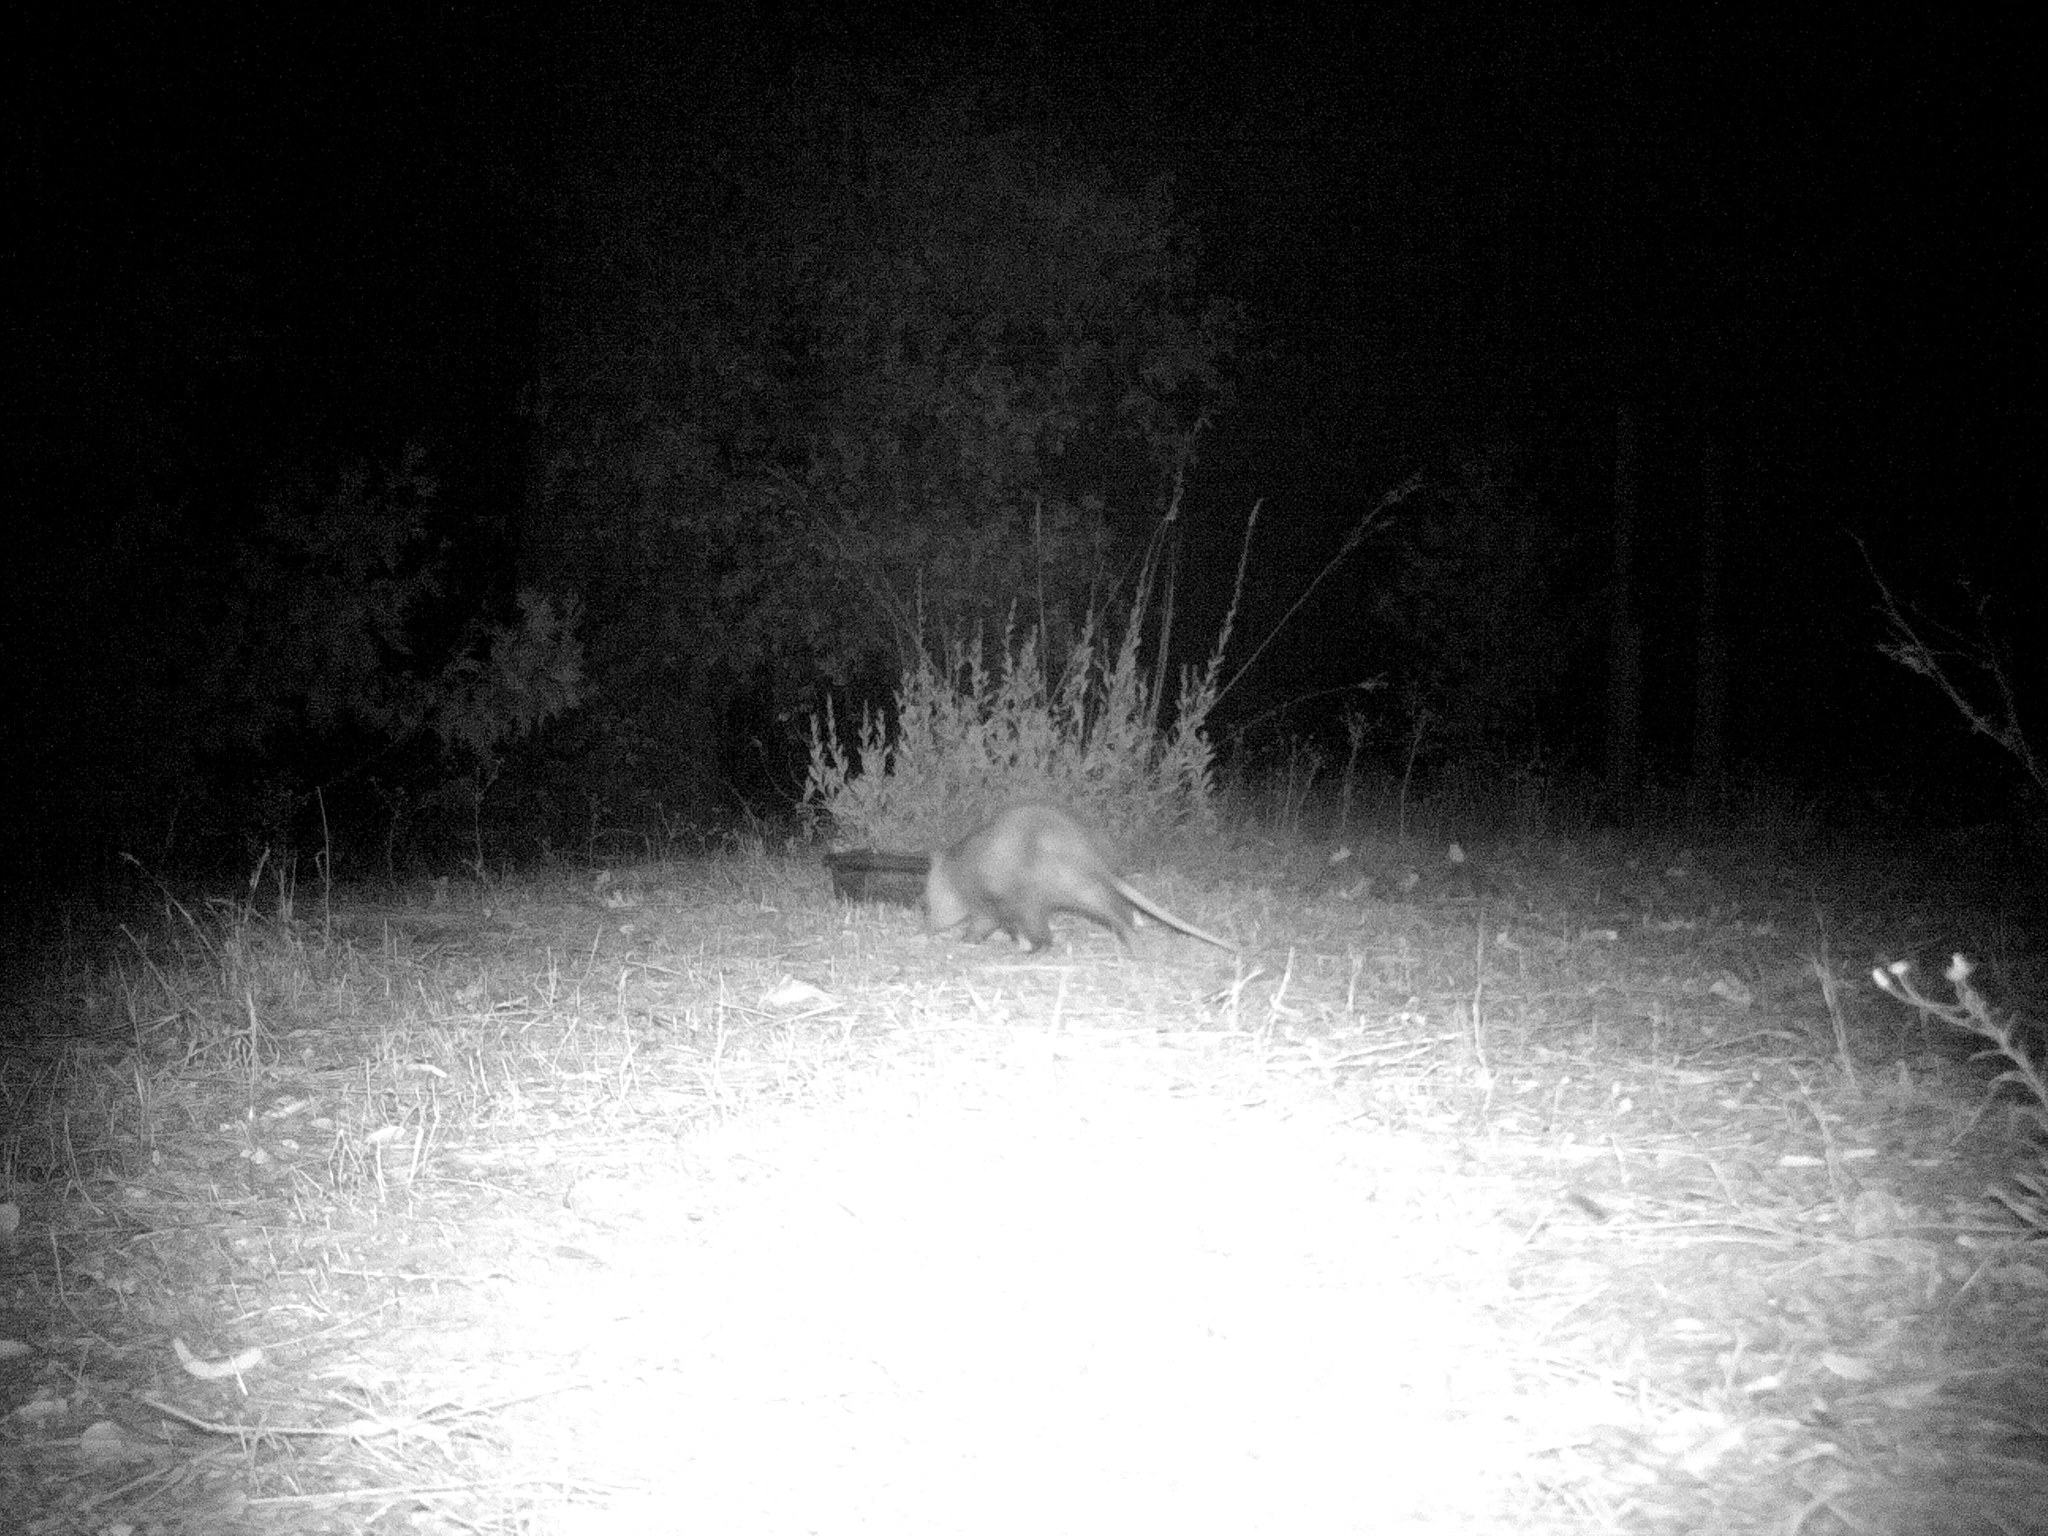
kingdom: Animalia
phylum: Chordata
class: Mammalia
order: Didelphimorphia
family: Didelphidae
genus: Didelphis
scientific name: Didelphis virginiana
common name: Virginia opossum
